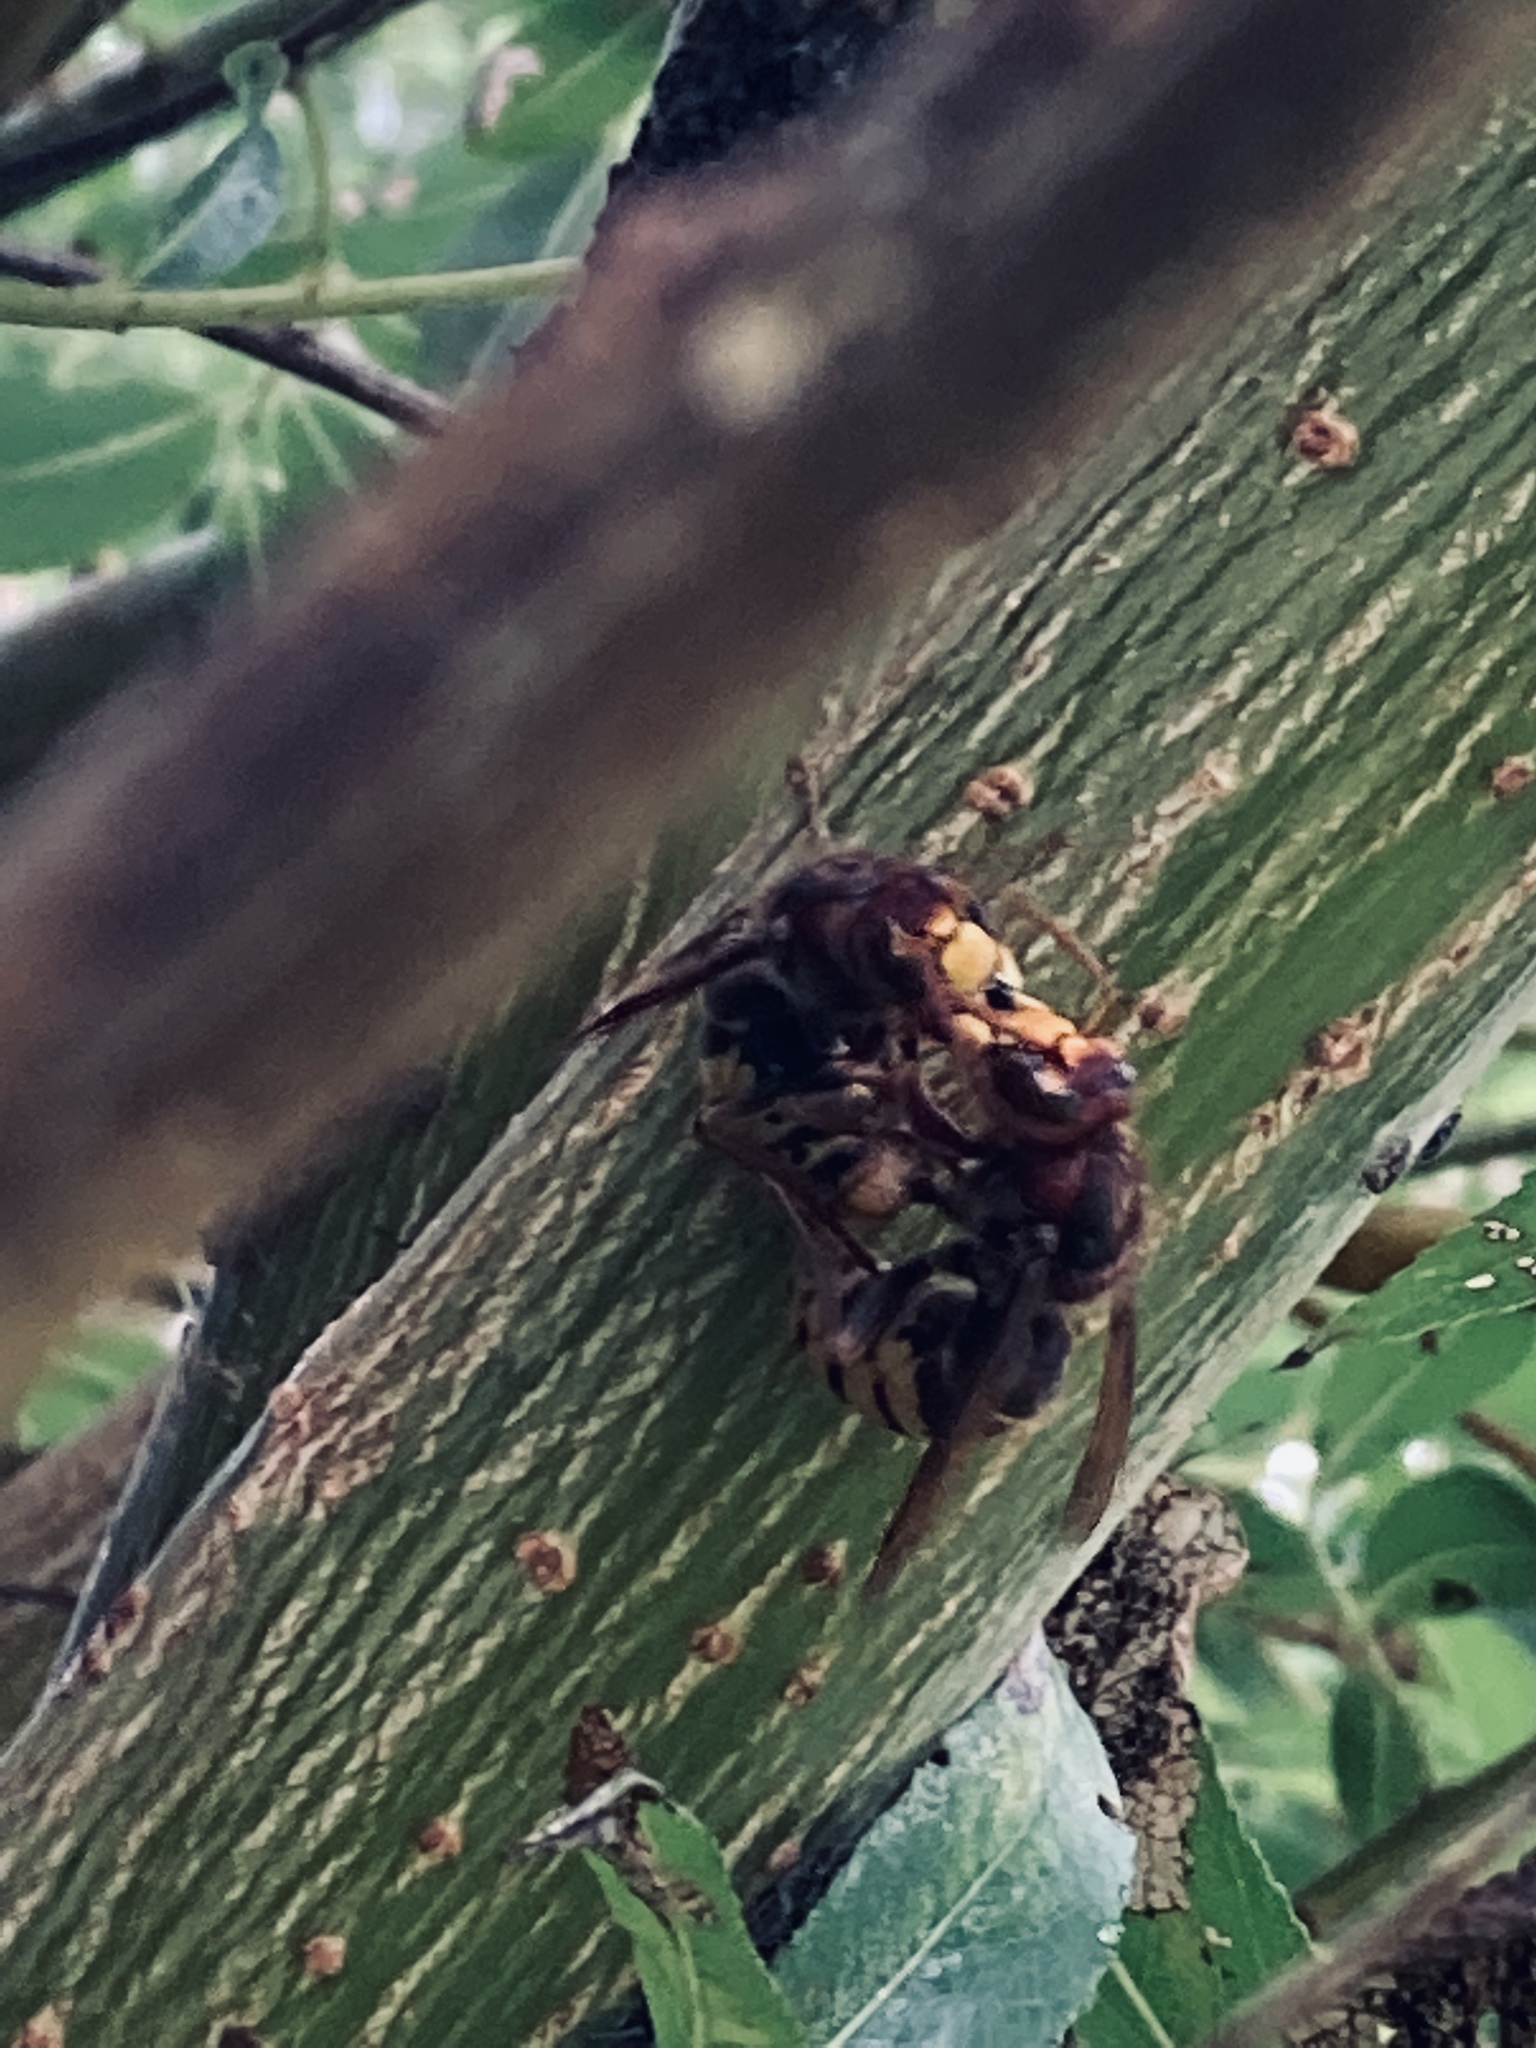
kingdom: Animalia
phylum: Arthropoda
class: Insecta
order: Hymenoptera
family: Vespidae
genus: Vespa
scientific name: Vespa crabro
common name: Hornet
